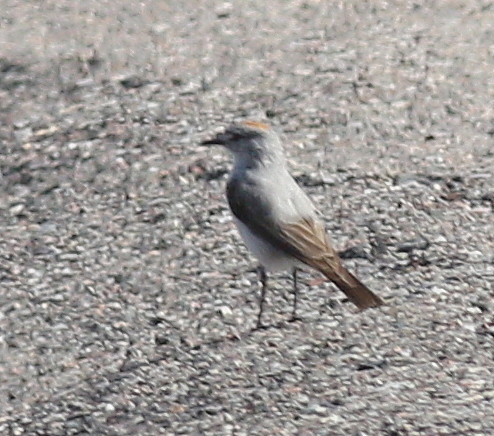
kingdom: Animalia
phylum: Chordata
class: Aves
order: Passeriformes
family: Tyrannidae
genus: Muscisaxicola
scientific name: Muscisaxicola rufivertex
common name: Rufous-naped ground tyrant
